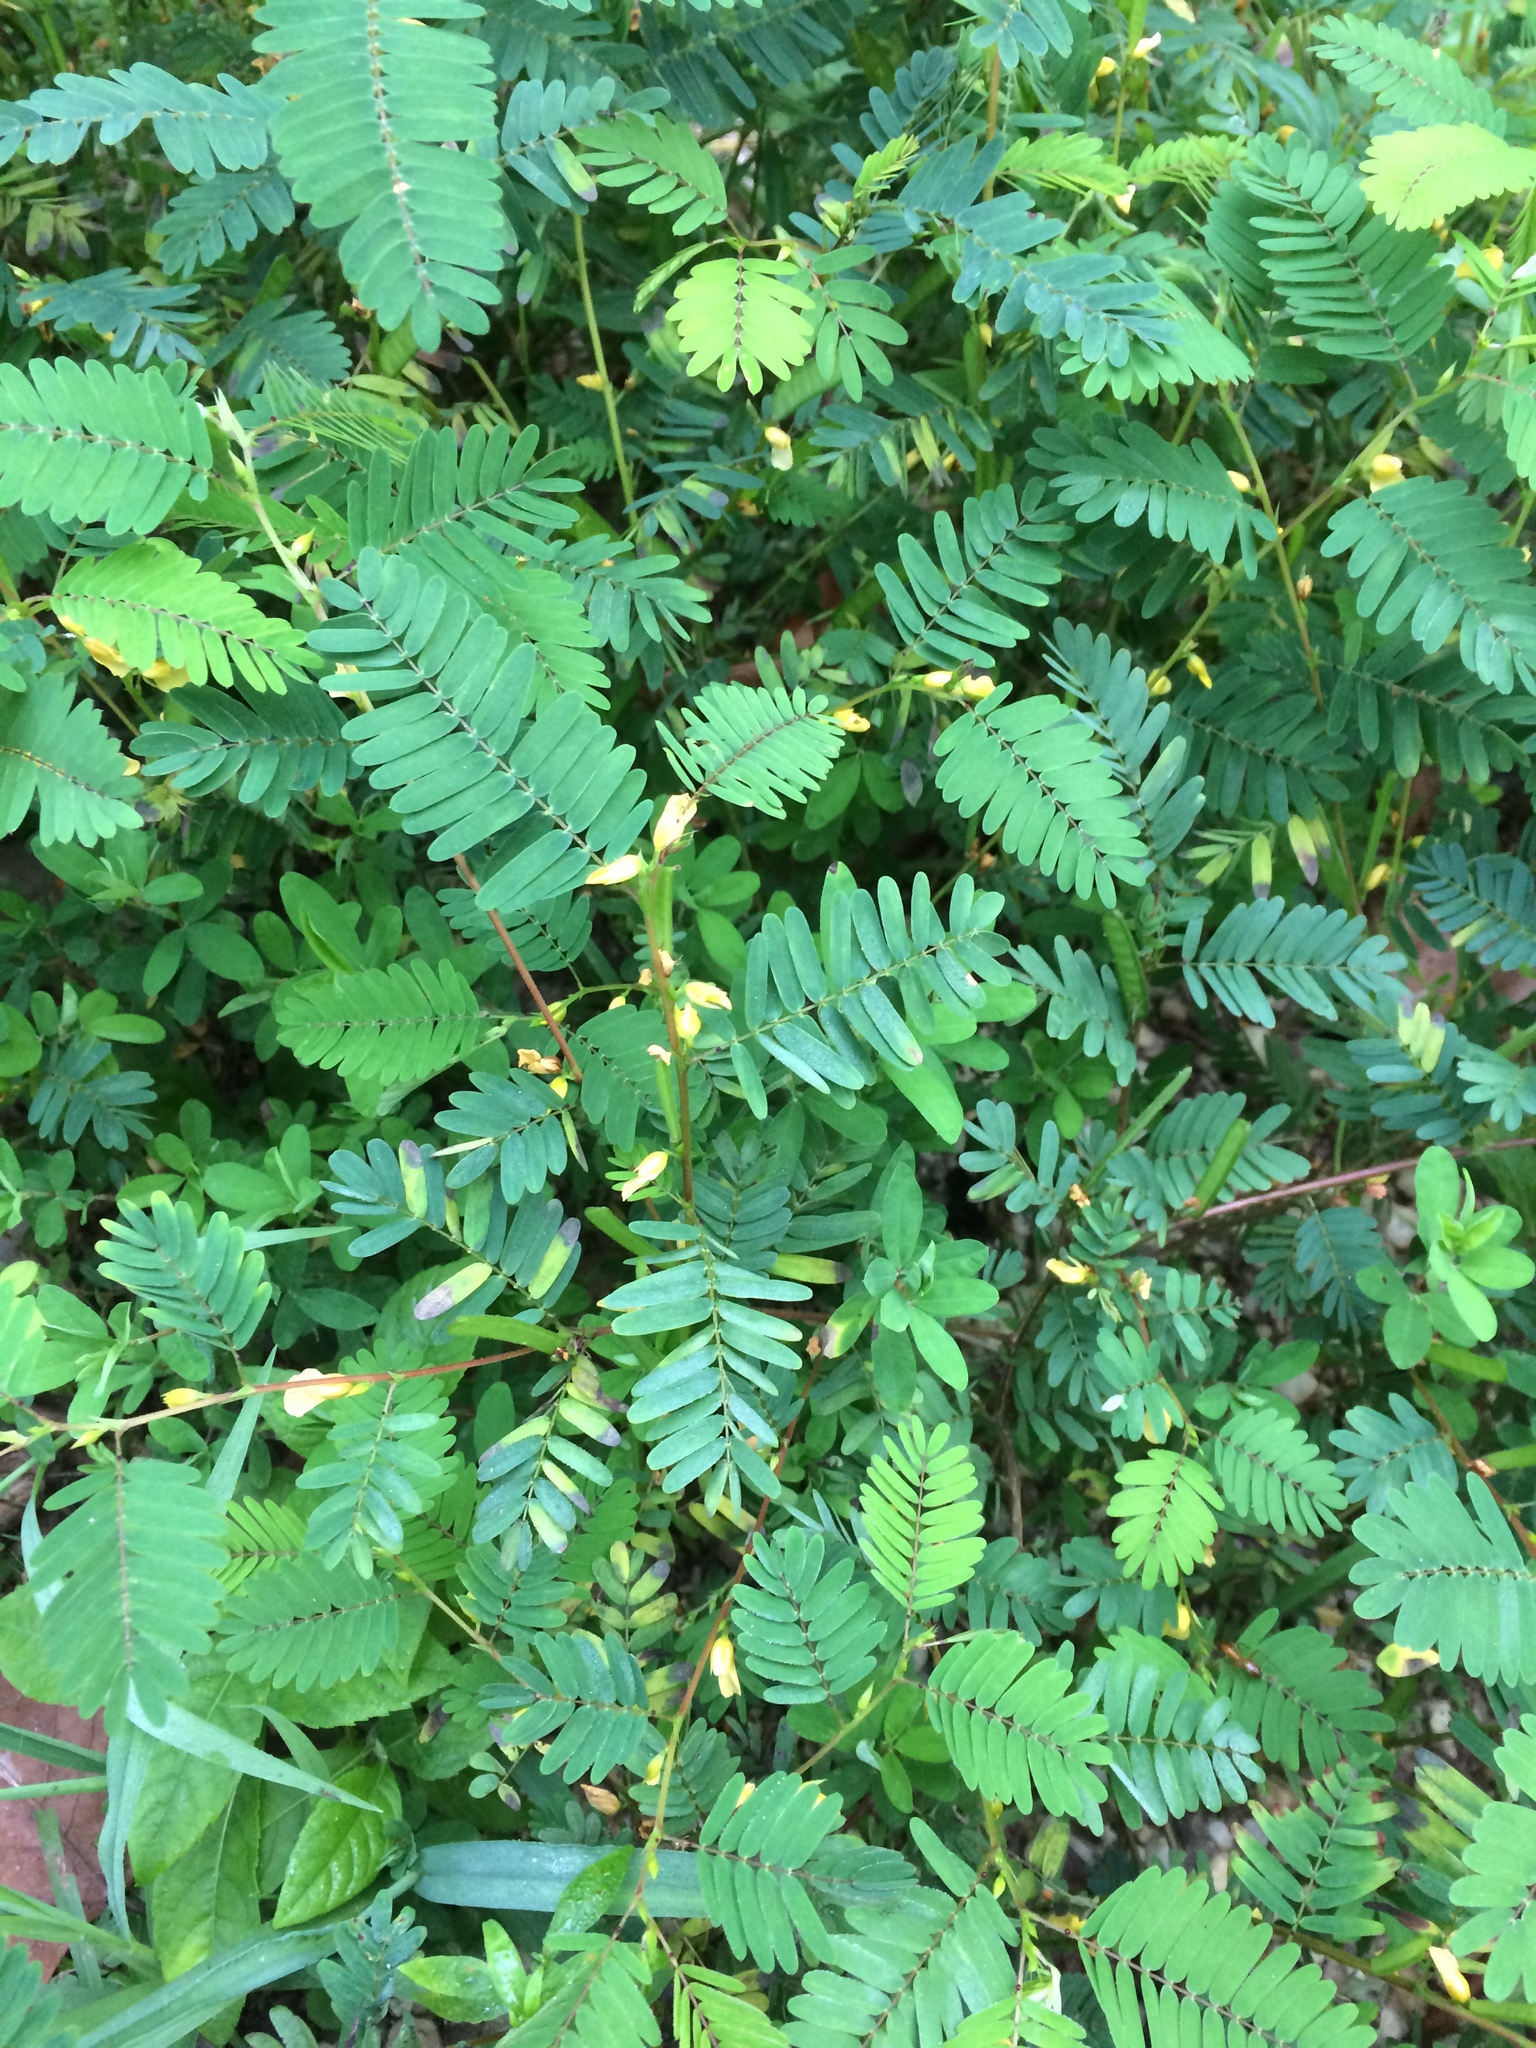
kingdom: Plantae
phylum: Tracheophyta
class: Magnoliopsida
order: Fabales
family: Fabaceae
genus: Chamaecrista
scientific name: Chamaecrista nictitans
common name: Sensitive cassia
